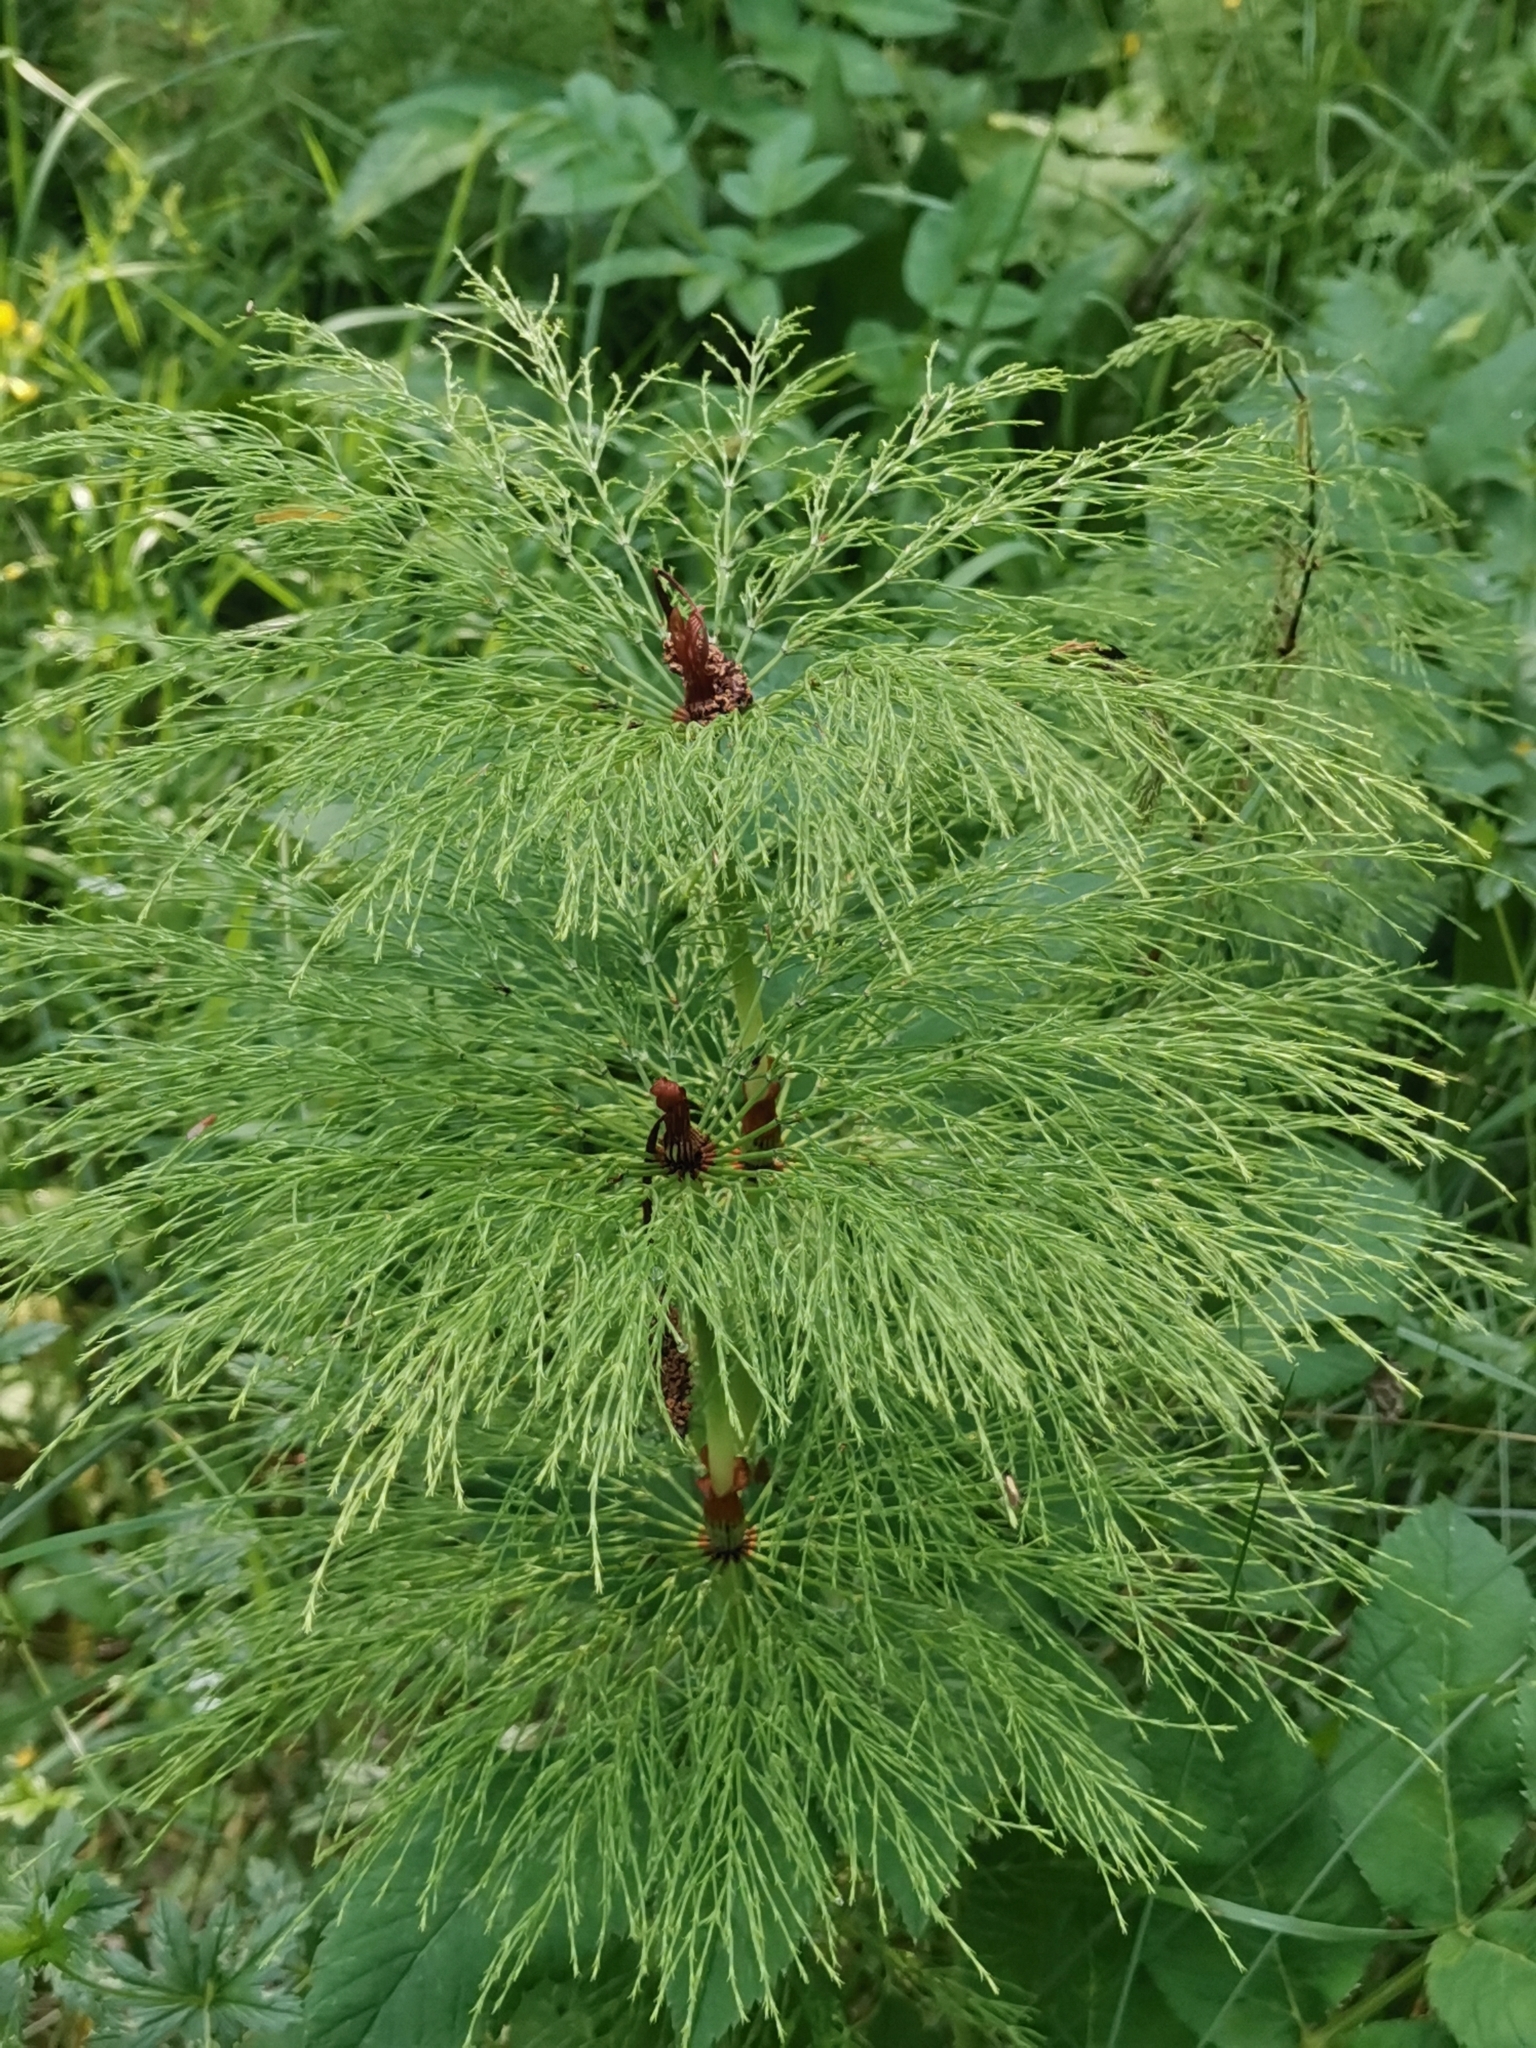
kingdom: Plantae
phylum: Tracheophyta
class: Polypodiopsida
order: Equisetales
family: Equisetaceae
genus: Equisetum
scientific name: Equisetum sylvaticum
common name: Wood horsetail
